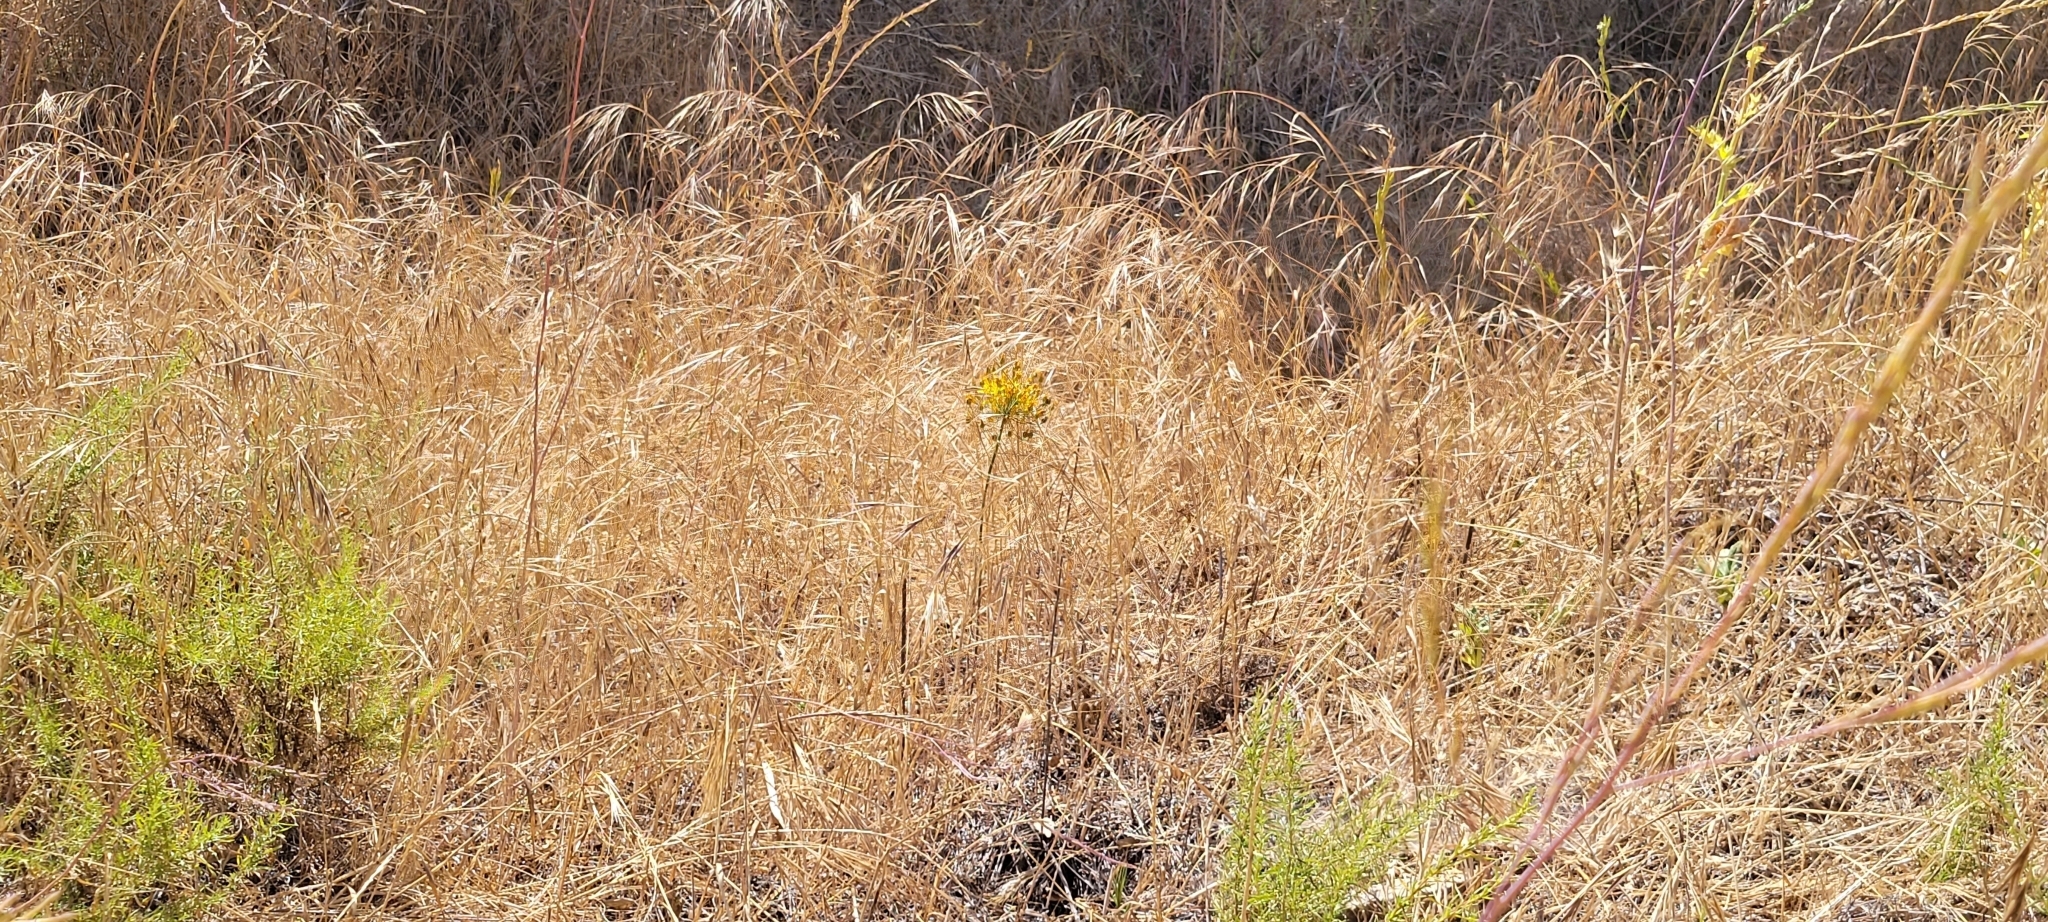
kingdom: Plantae
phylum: Tracheophyta
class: Liliopsida
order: Asparagales
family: Asparagaceae
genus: Bloomeria
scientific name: Bloomeria crocea
